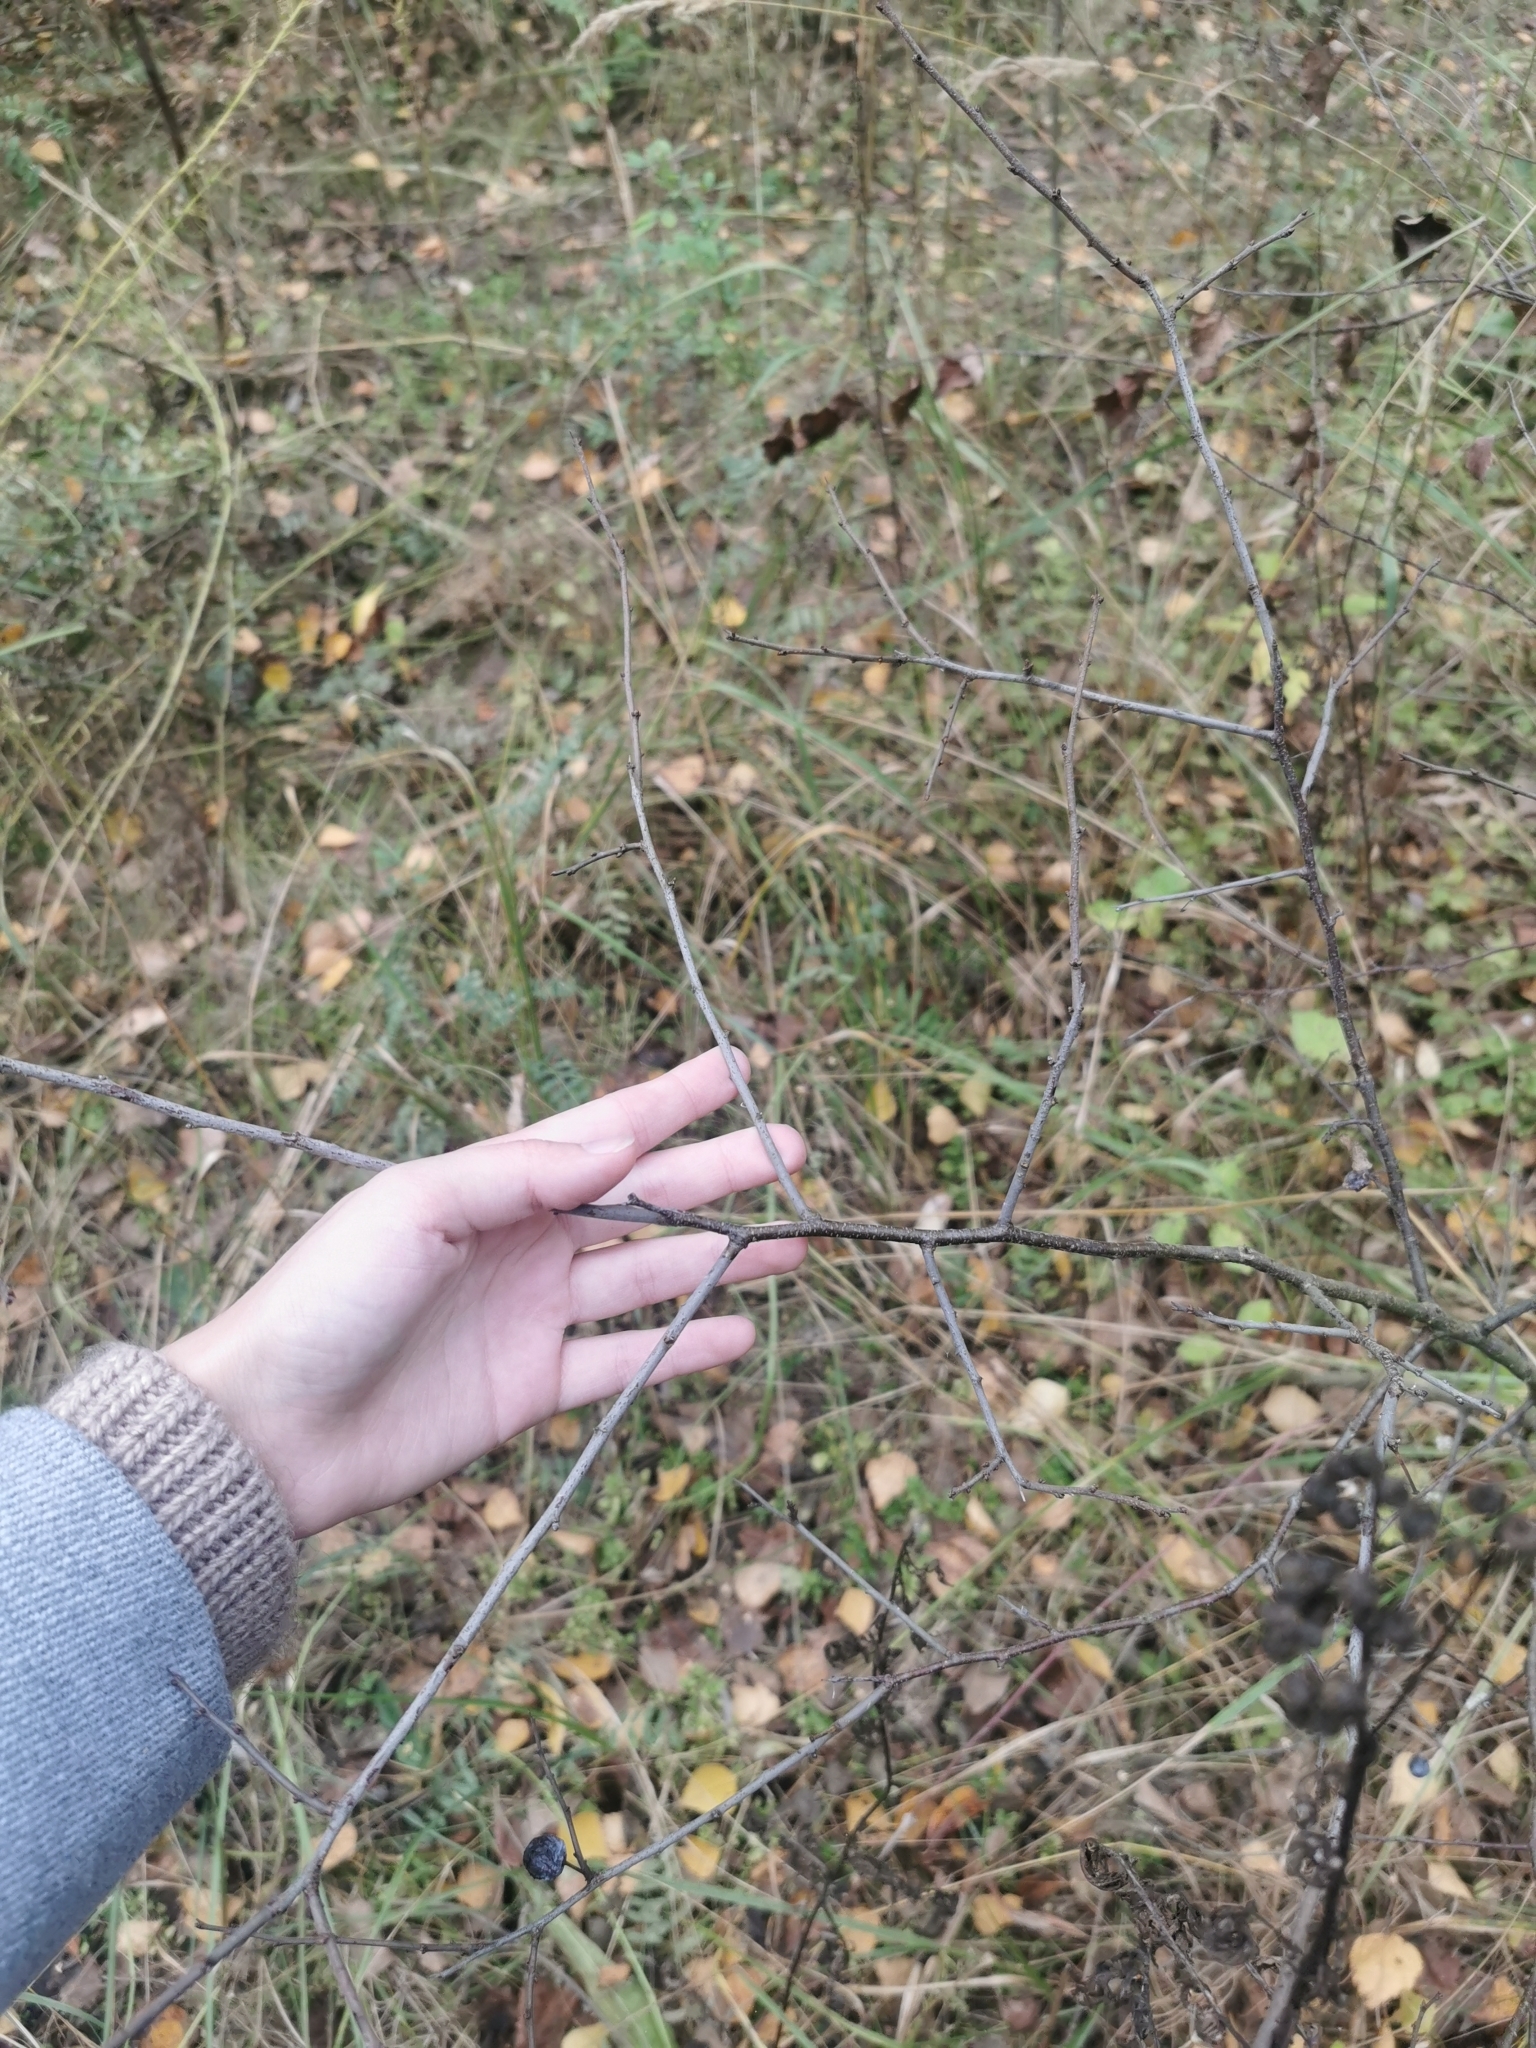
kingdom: Plantae
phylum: Tracheophyta
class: Magnoliopsida
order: Rosales
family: Rosaceae
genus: Prunus
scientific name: Prunus spinosa
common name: Blackthorn
